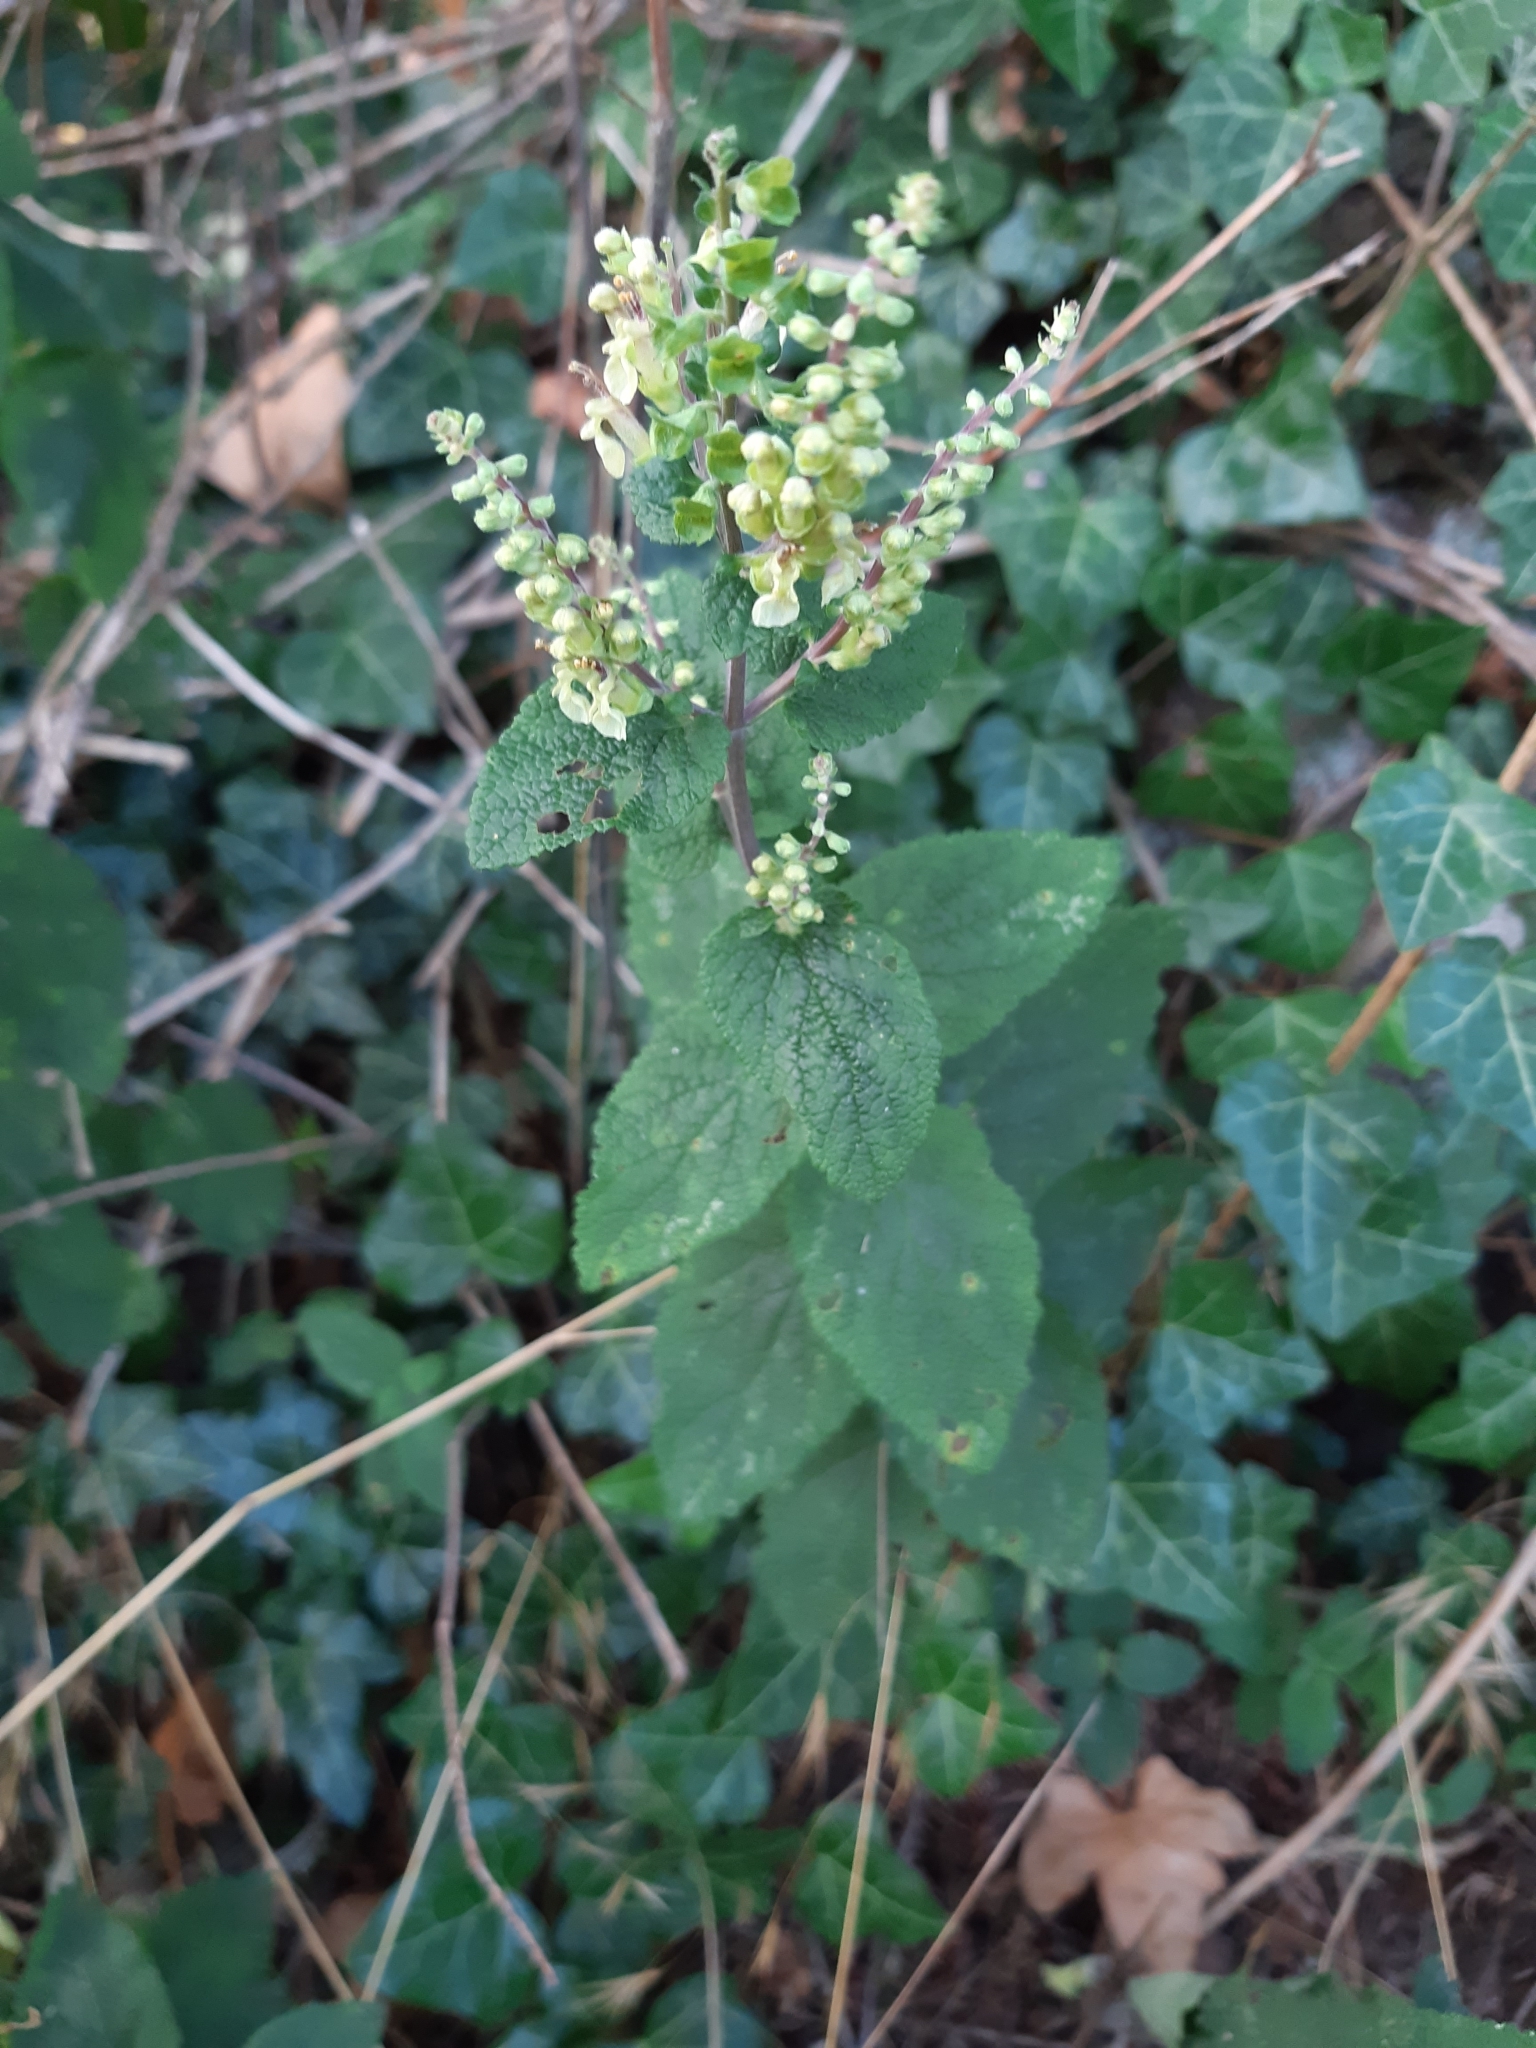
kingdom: Plantae
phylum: Tracheophyta
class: Magnoliopsida
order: Lamiales
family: Lamiaceae
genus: Teucrium
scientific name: Teucrium scorodonia
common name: Woodland germander
